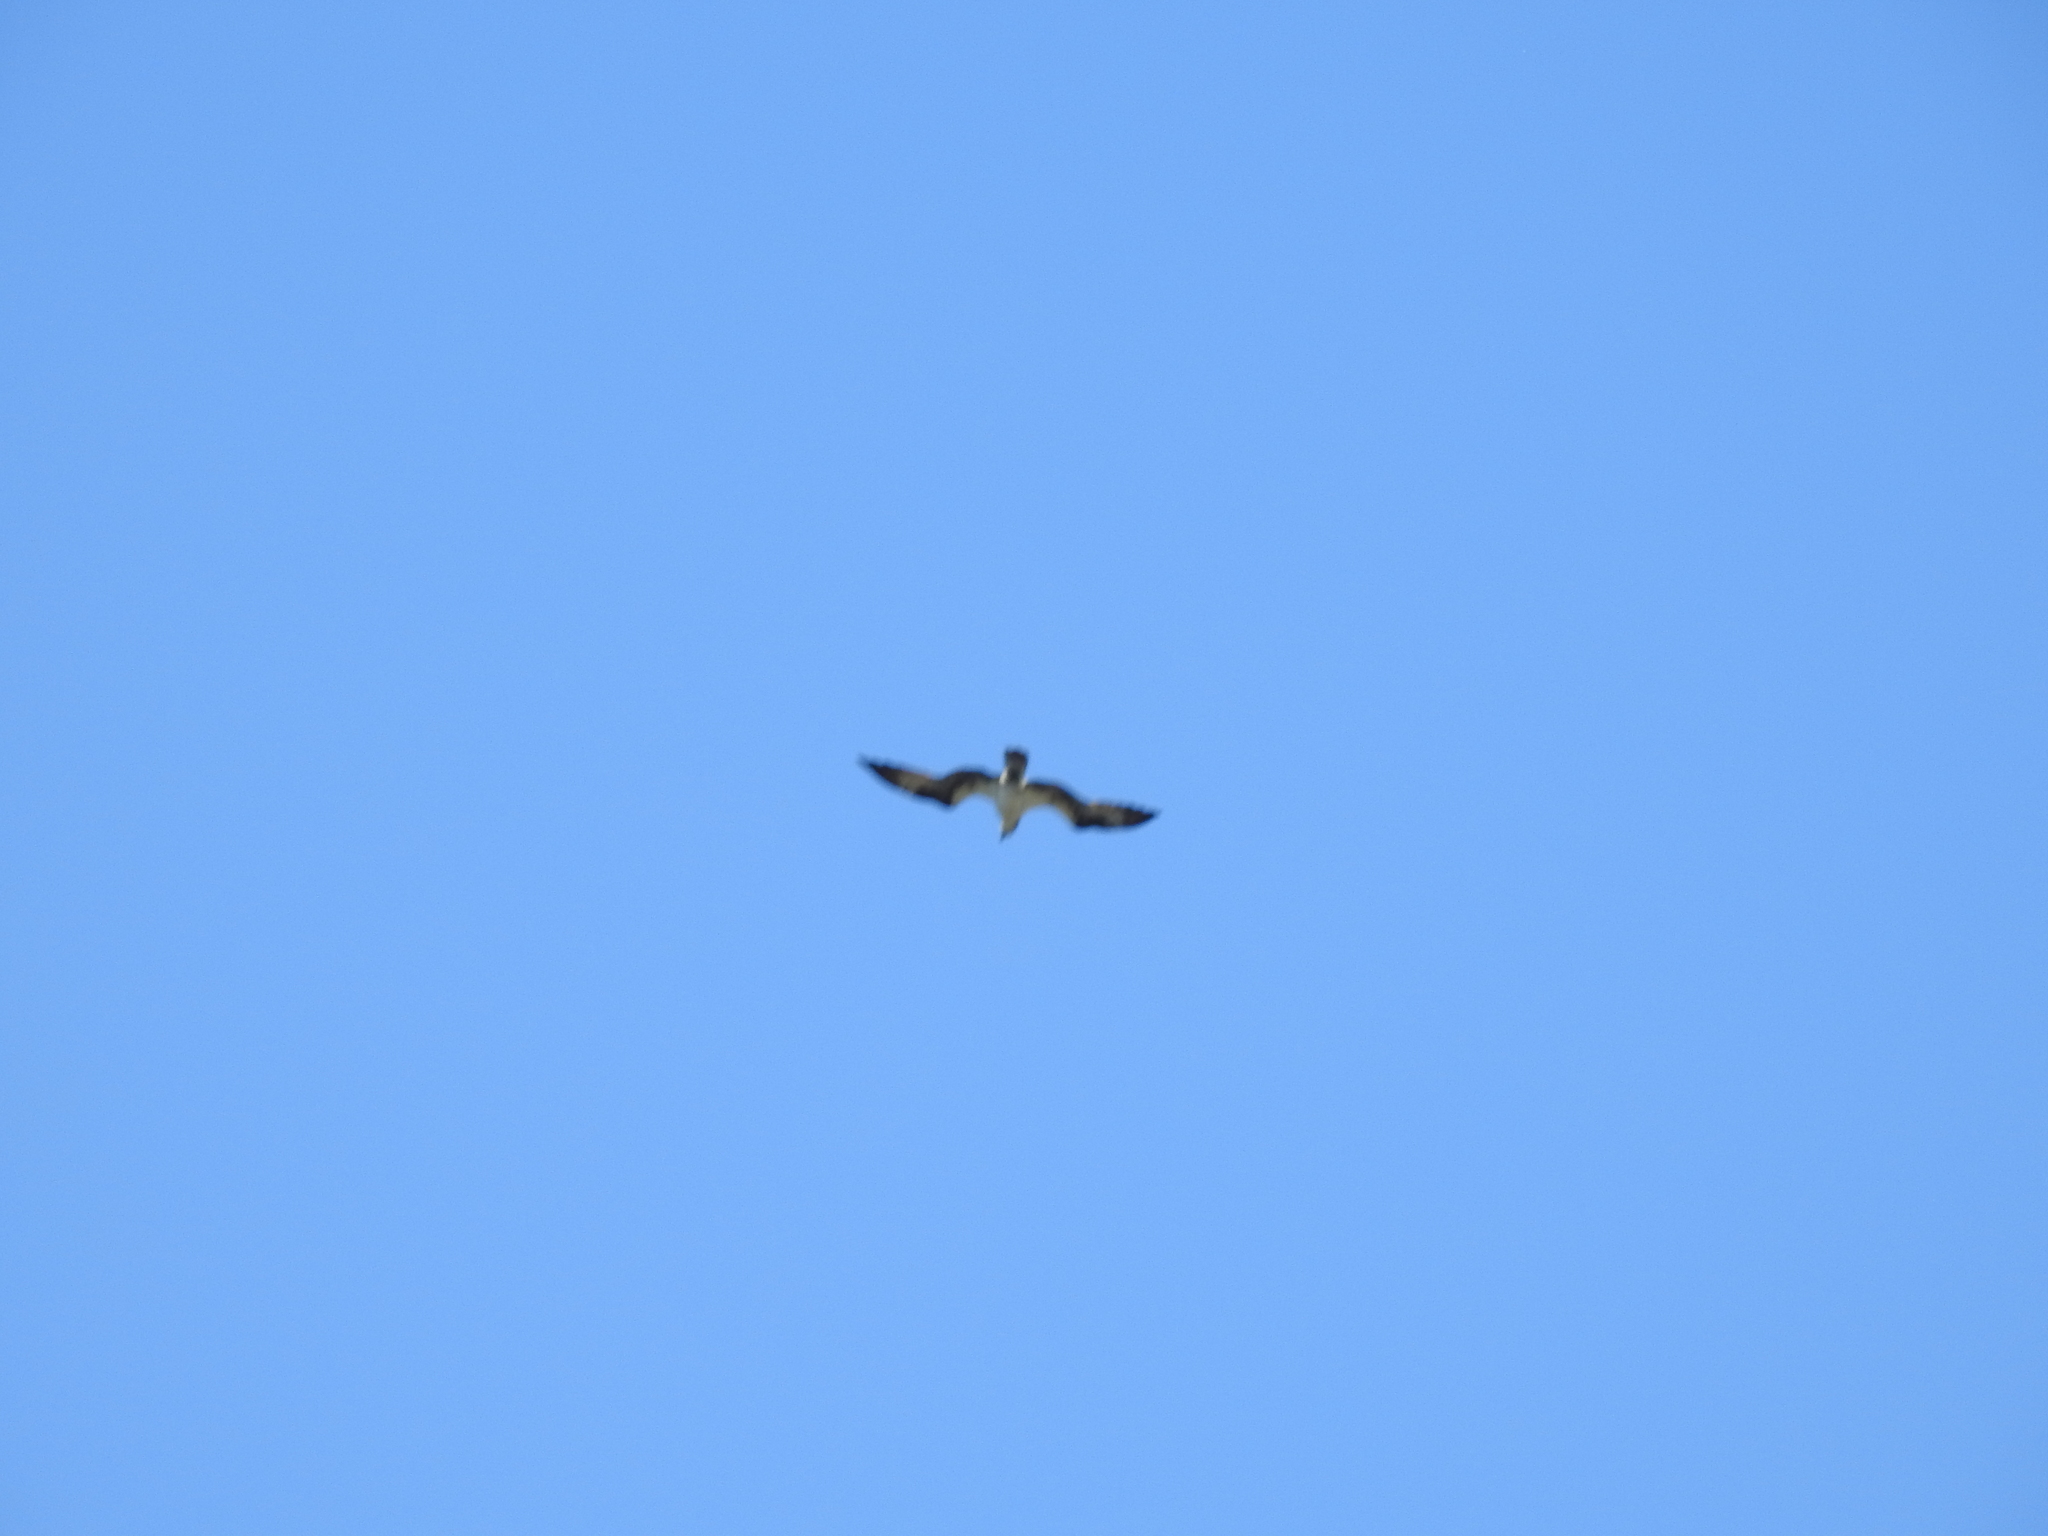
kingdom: Animalia
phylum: Chordata
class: Aves
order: Accipitriformes
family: Pandionidae
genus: Pandion
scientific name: Pandion haliaetus
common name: Osprey
